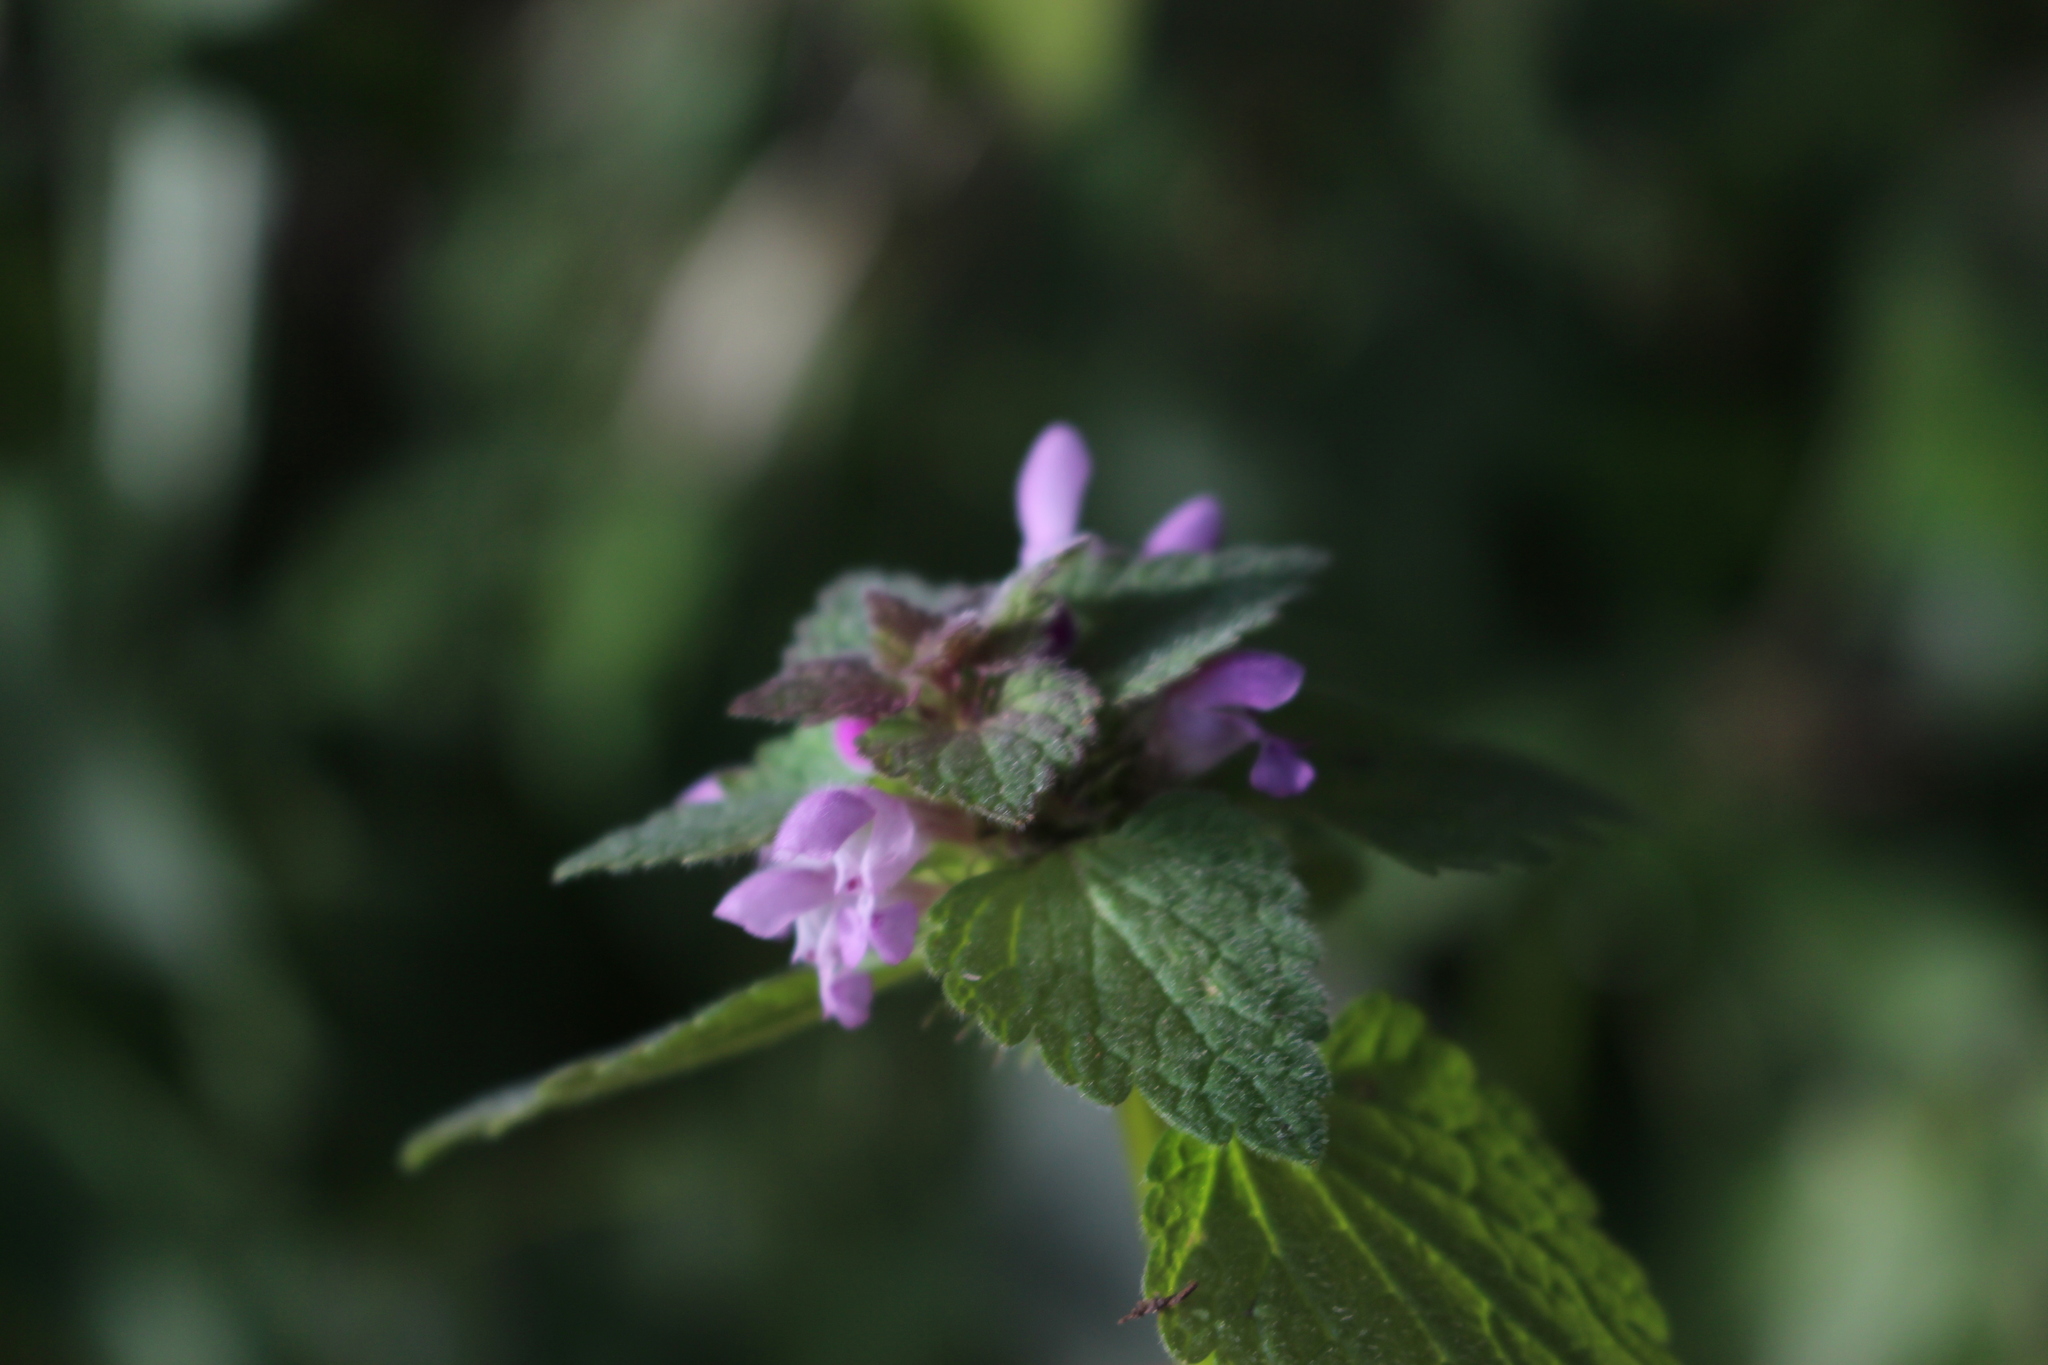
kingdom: Plantae
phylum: Tracheophyta
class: Magnoliopsida
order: Lamiales
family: Lamiaceae
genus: Lamium
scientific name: Lamium purpureum
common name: Red dead-nettle
